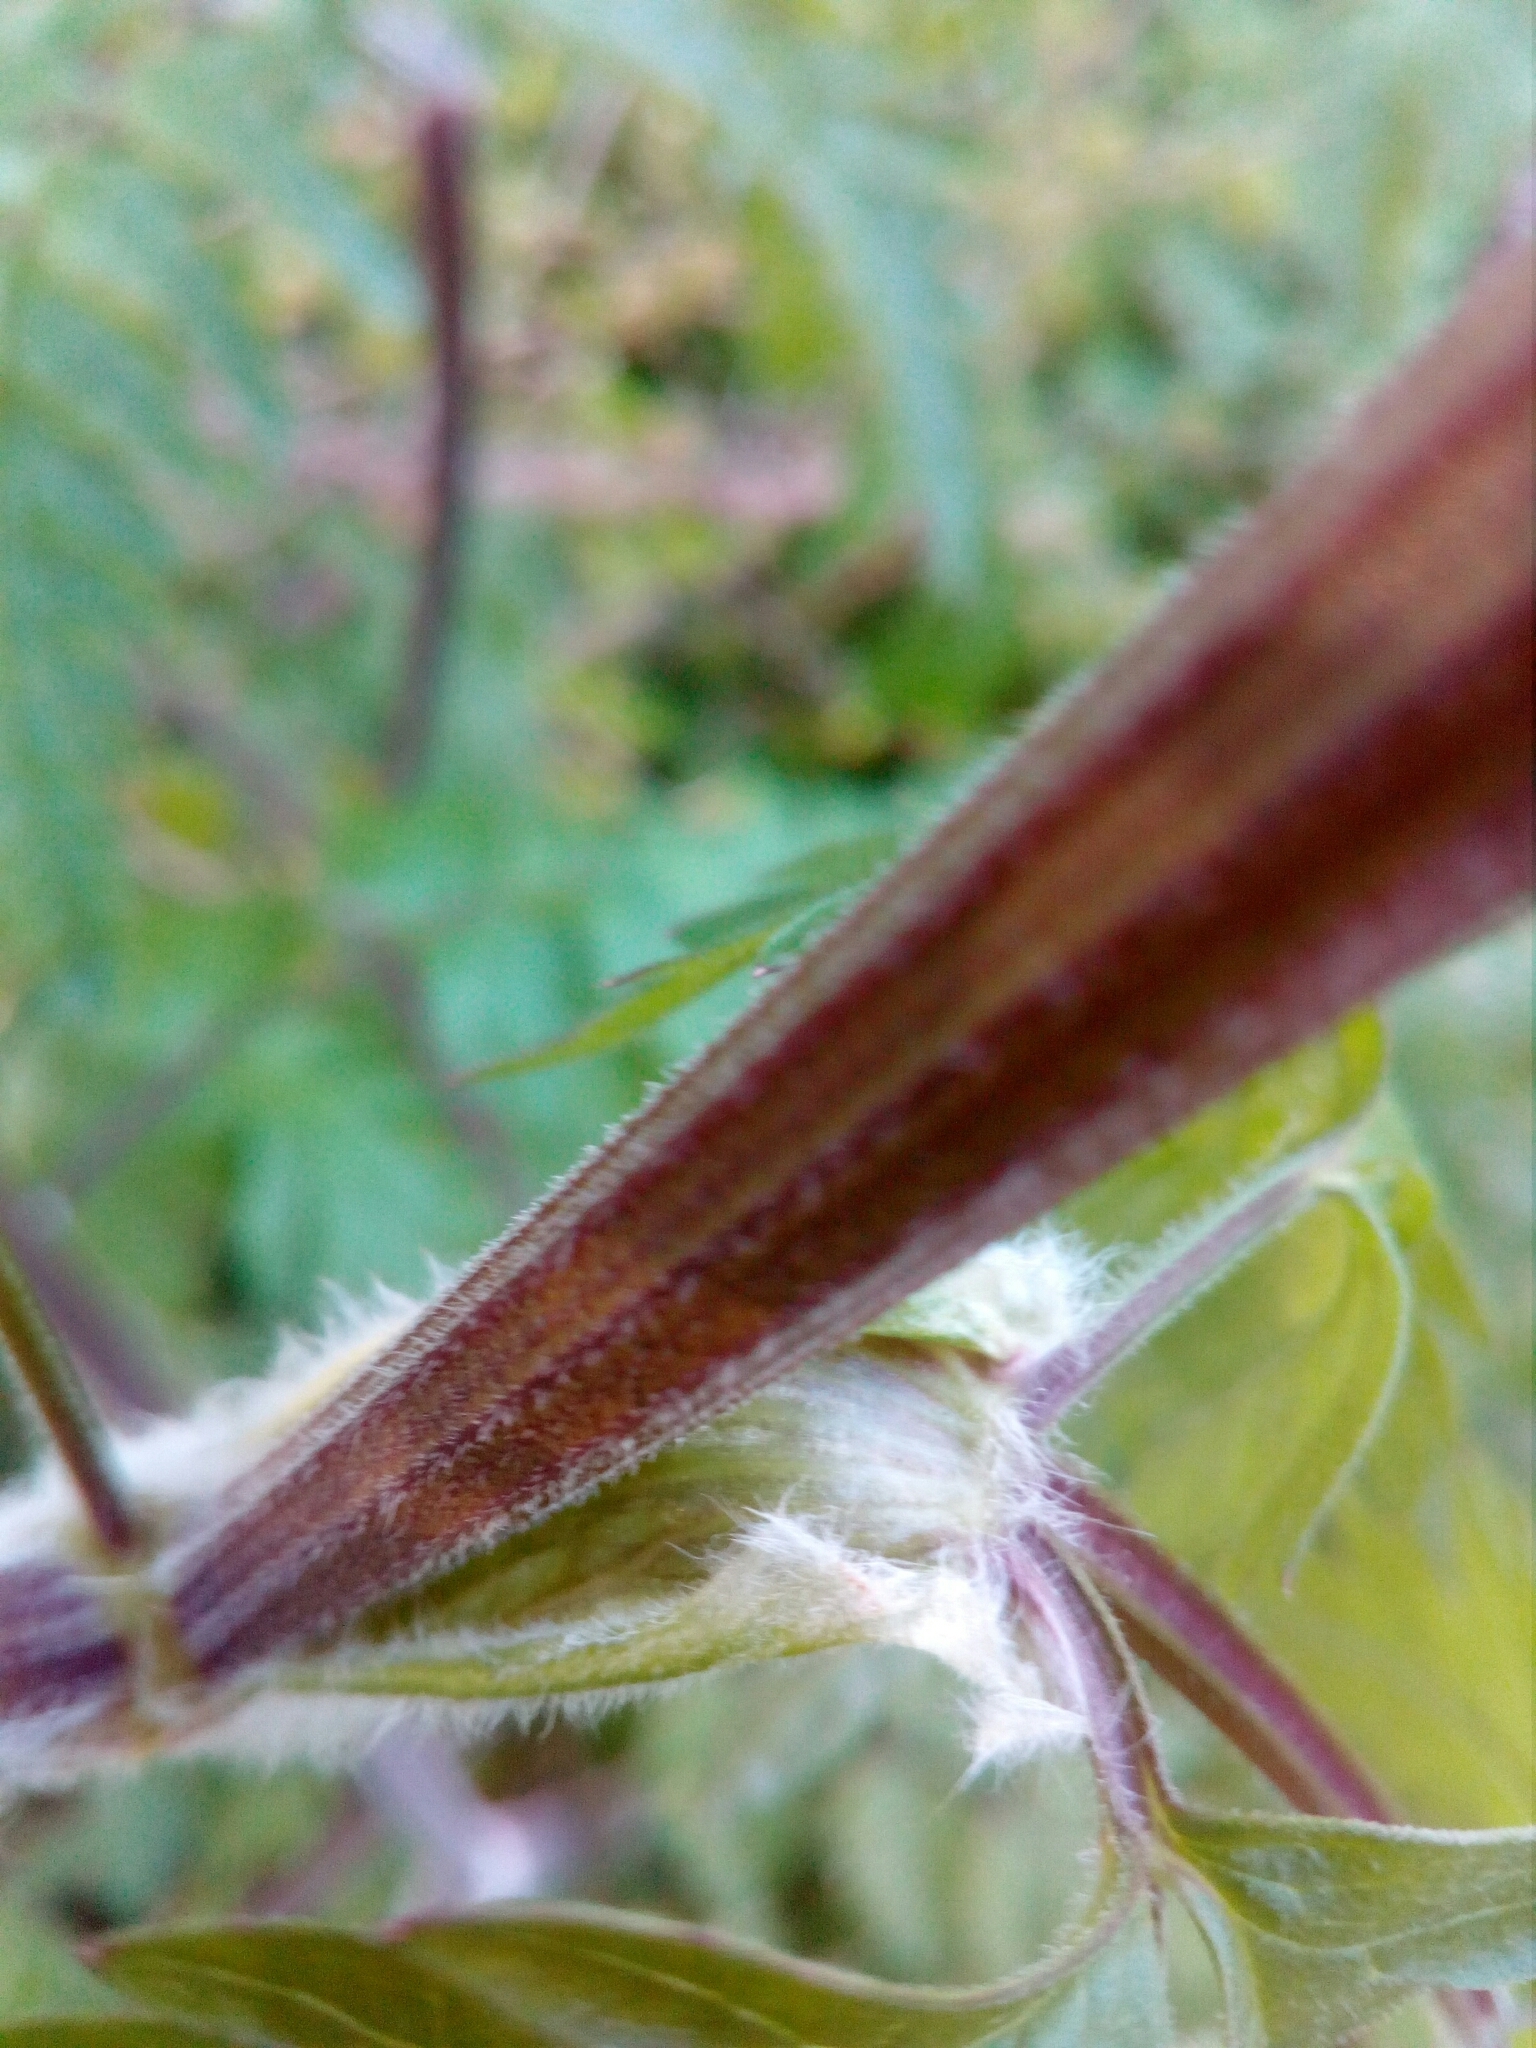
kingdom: Plantae
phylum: Tracheophyta
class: Magnoliopsida
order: Apiales
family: Apiaceae
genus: Anthriscus
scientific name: Anthriscus sylvestris
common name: Cow parsley
